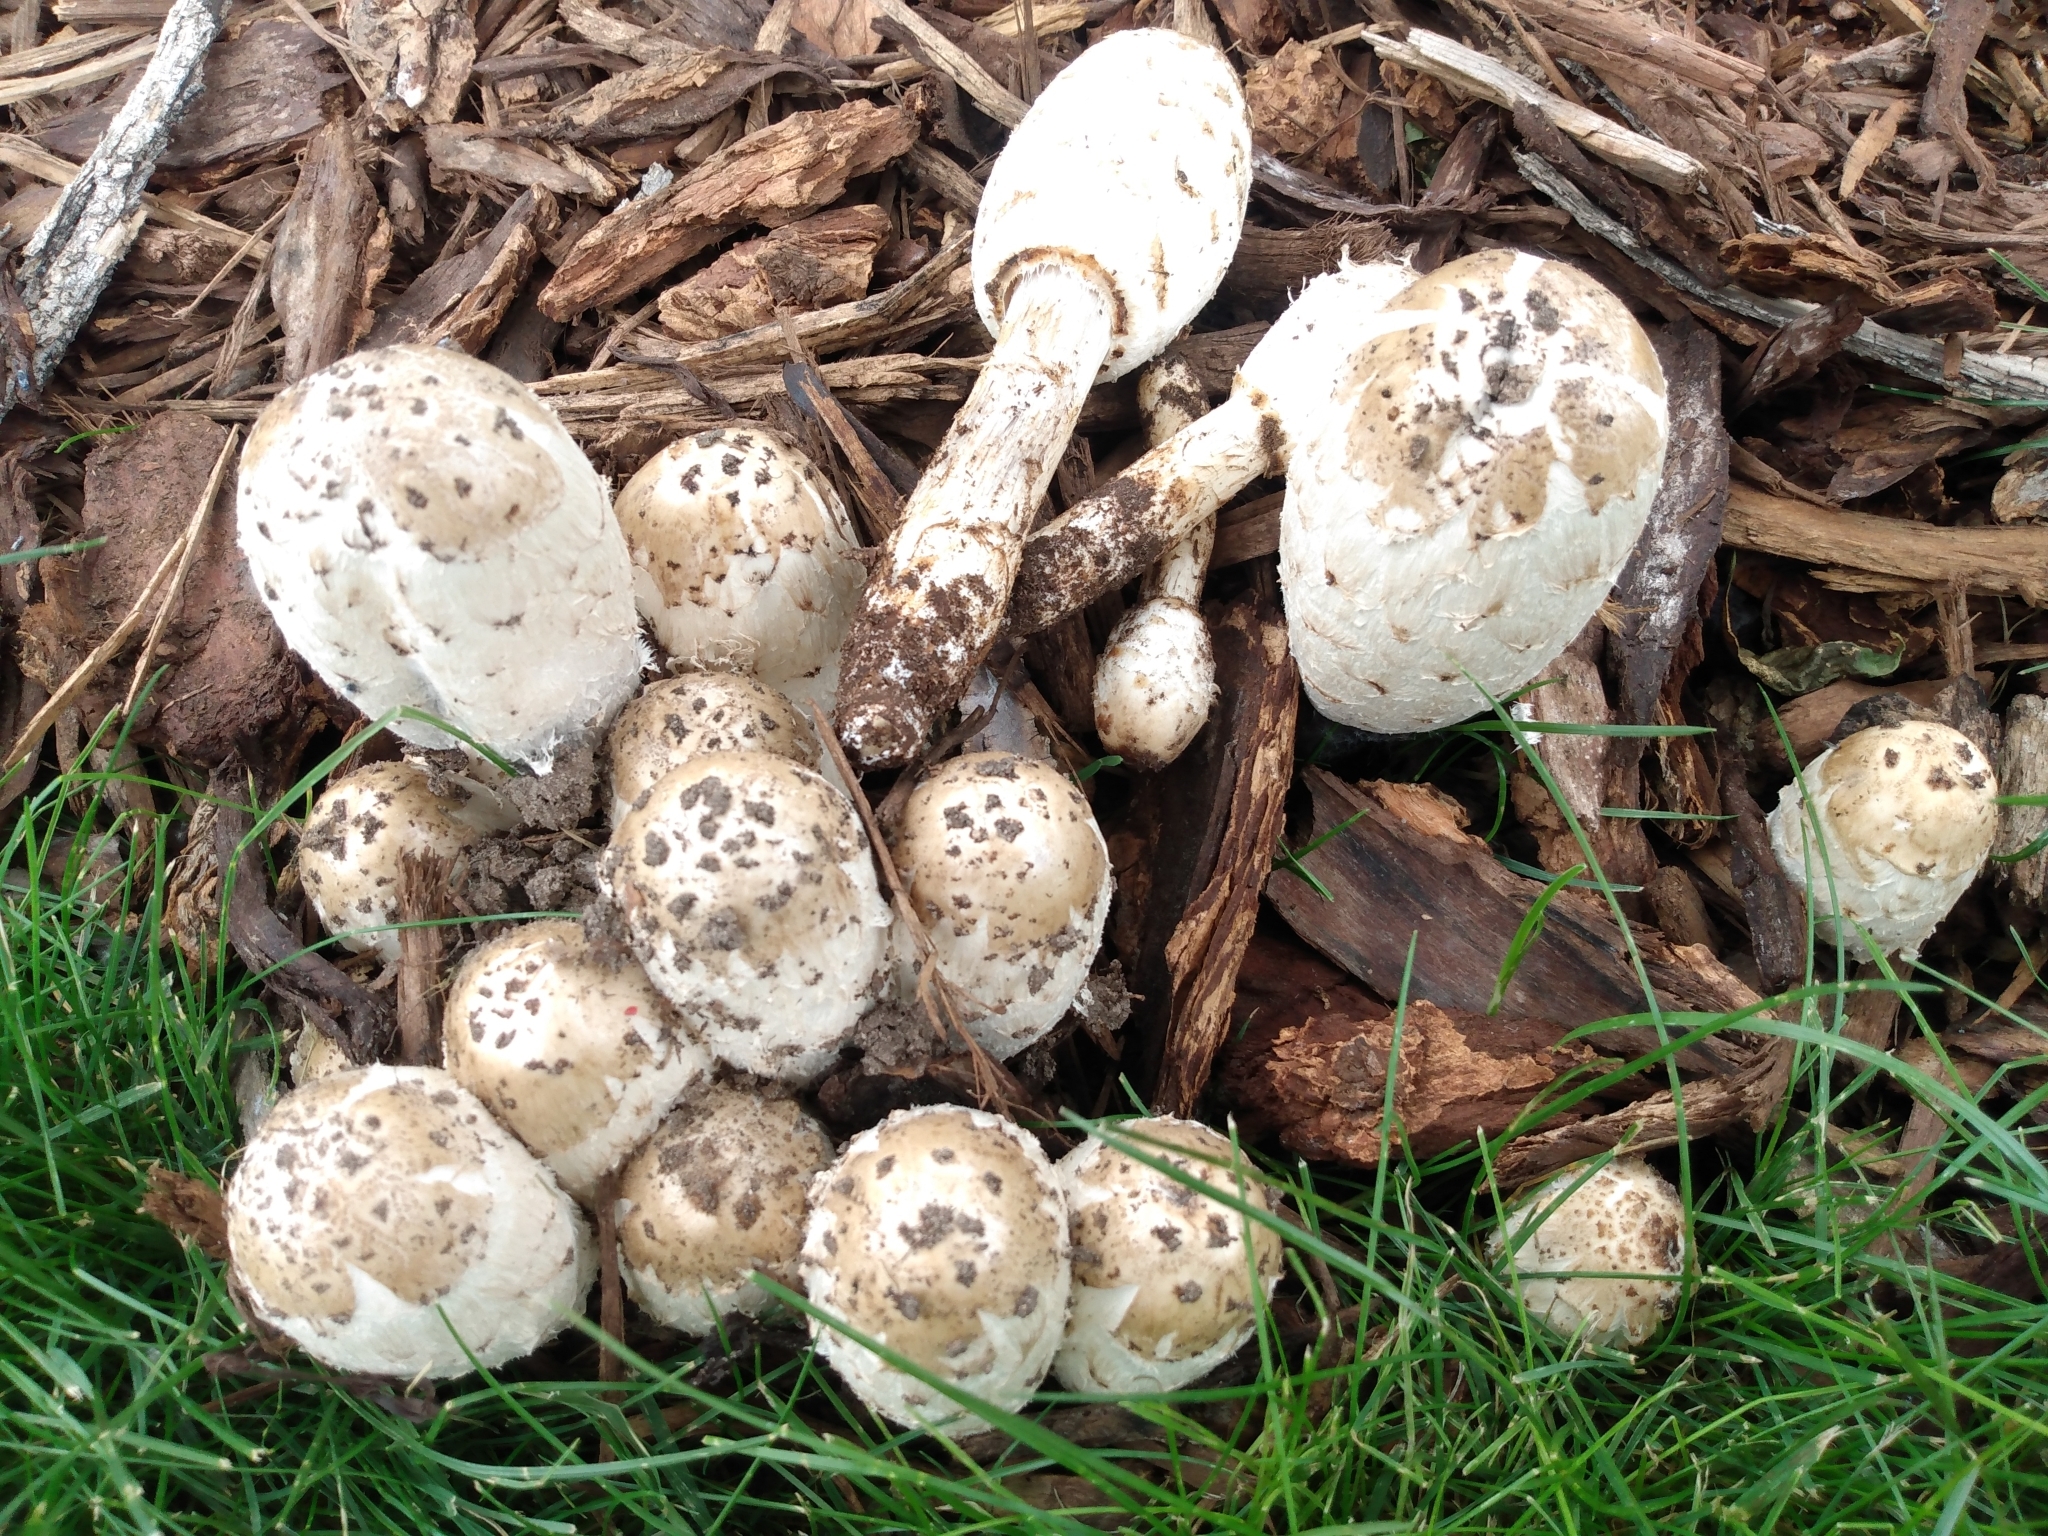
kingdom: Fungi
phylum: Basidiomycota
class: Agaricomycetes
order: Agaricales
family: Agaricaceae
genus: Coprinus
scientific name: Coprinus comatus
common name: Lawyer's wig
